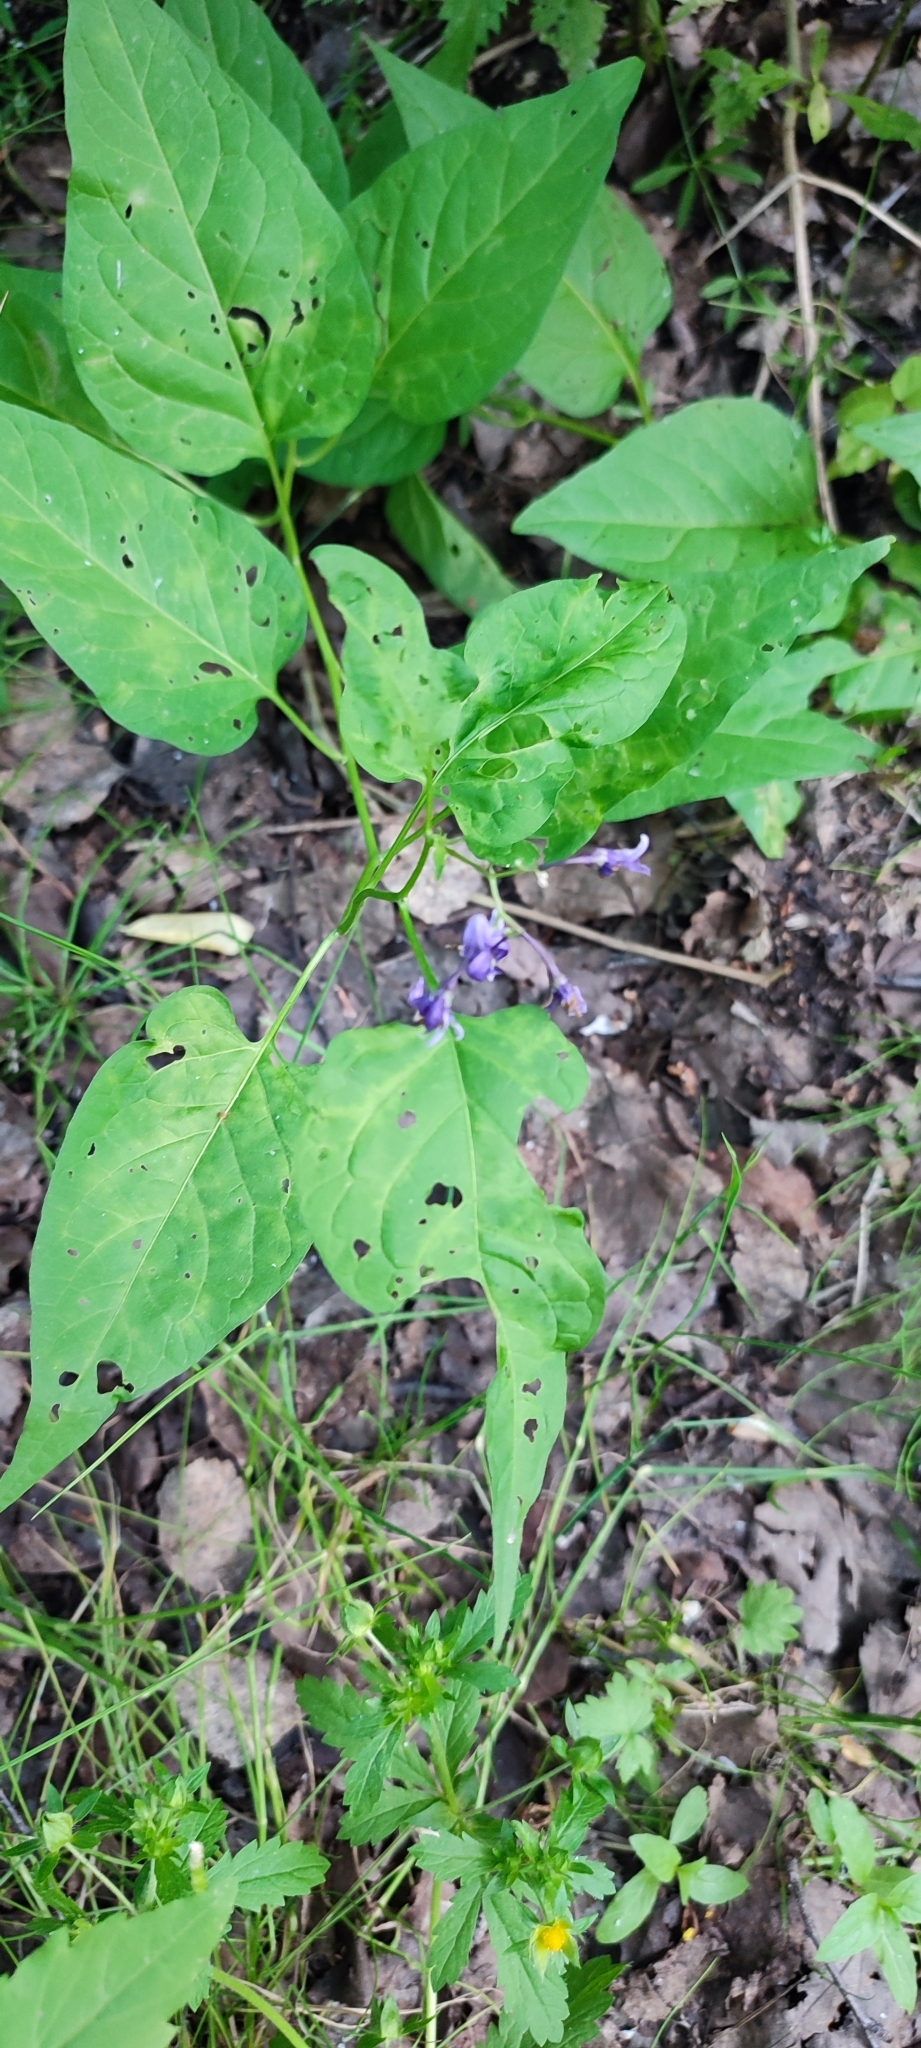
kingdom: Plantae
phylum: Tracheophyta
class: Magnoliopsida
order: Solanales
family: Solanaceae
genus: Solanum
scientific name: Solanum dulcamara
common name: Climbing nightshade
